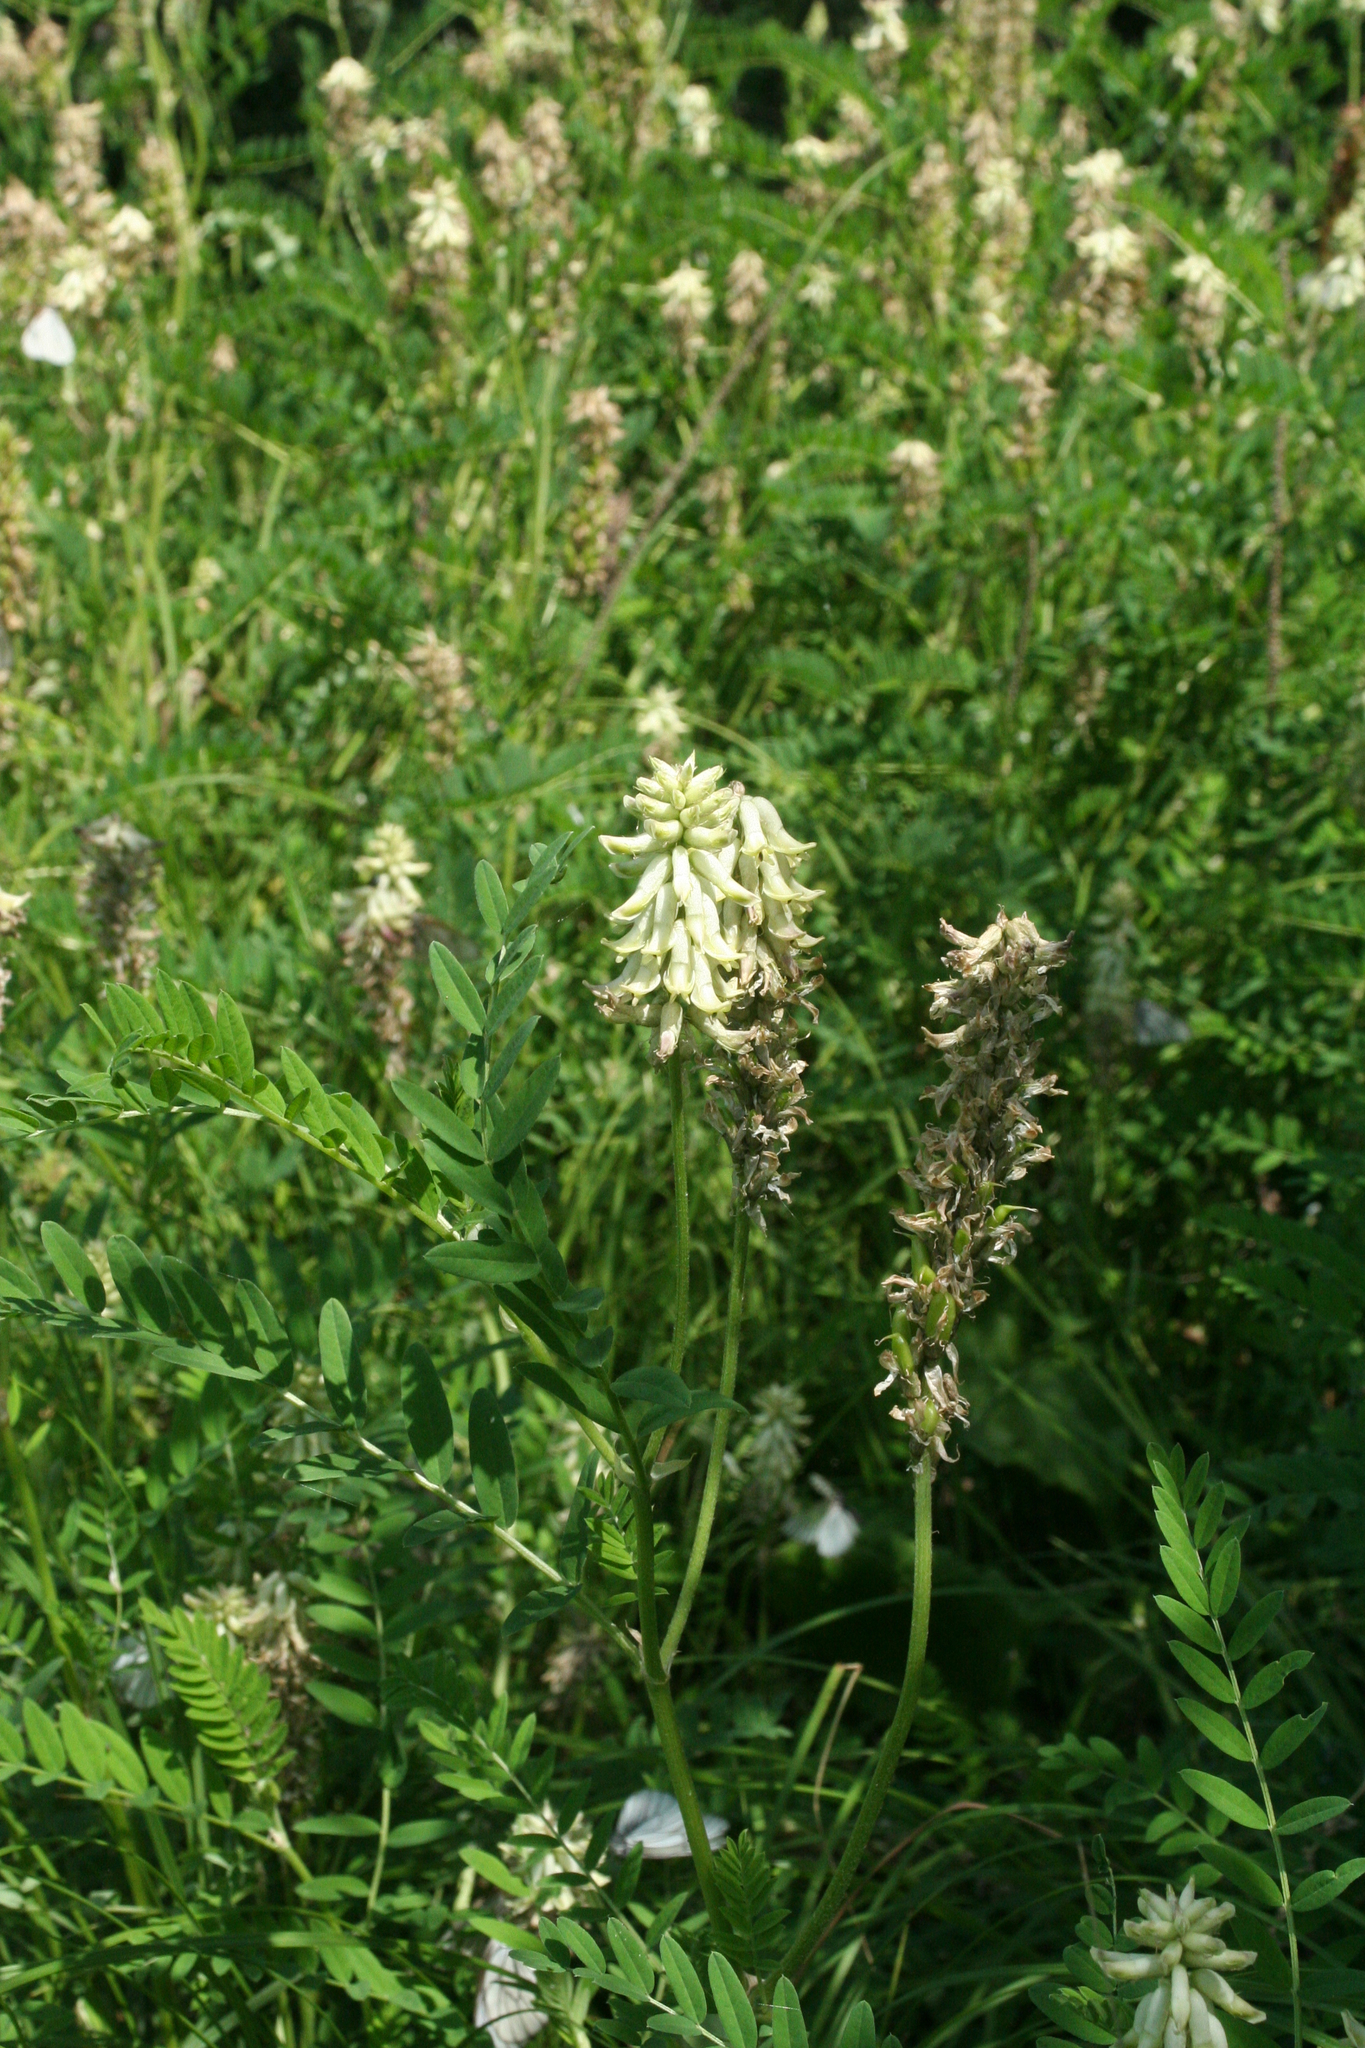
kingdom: Plantae
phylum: Tracheophyta
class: Magnoliopsida
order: Fabales
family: Fabaceae
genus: Astragalus
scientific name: Astragalus uliginosus
